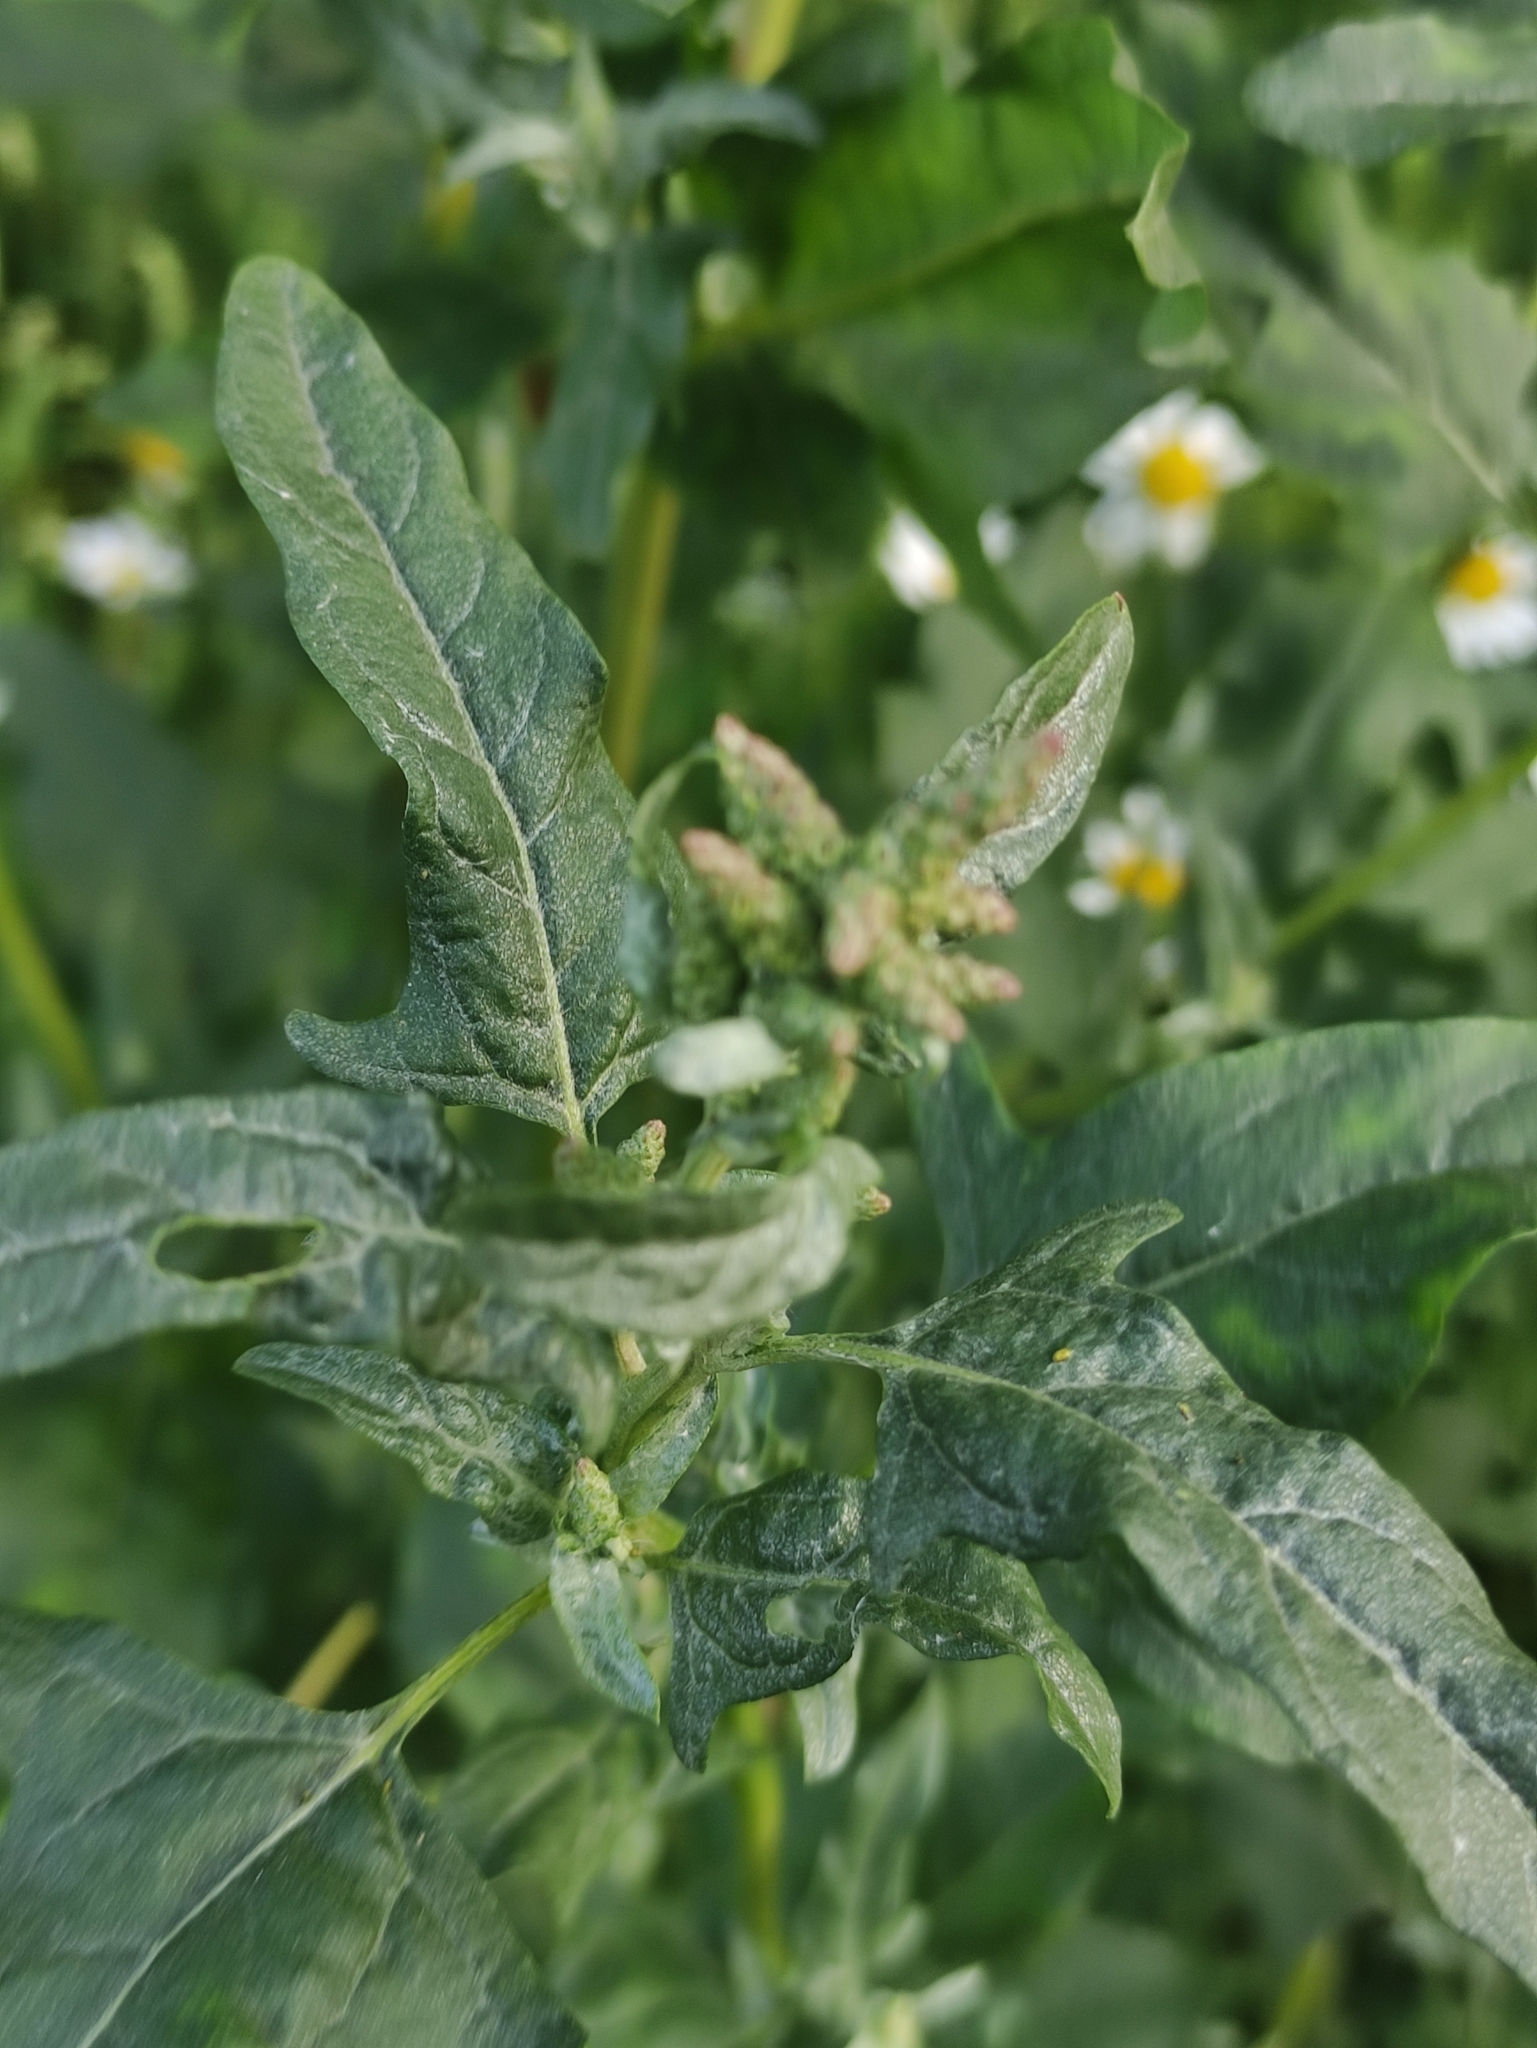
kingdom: Plantae
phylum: Tracheophyta
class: Magnoliopsida
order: Caryophyllales
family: Amaranthaceae
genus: Atriplex
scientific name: Atriplex tatarica
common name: Tatarian orache
